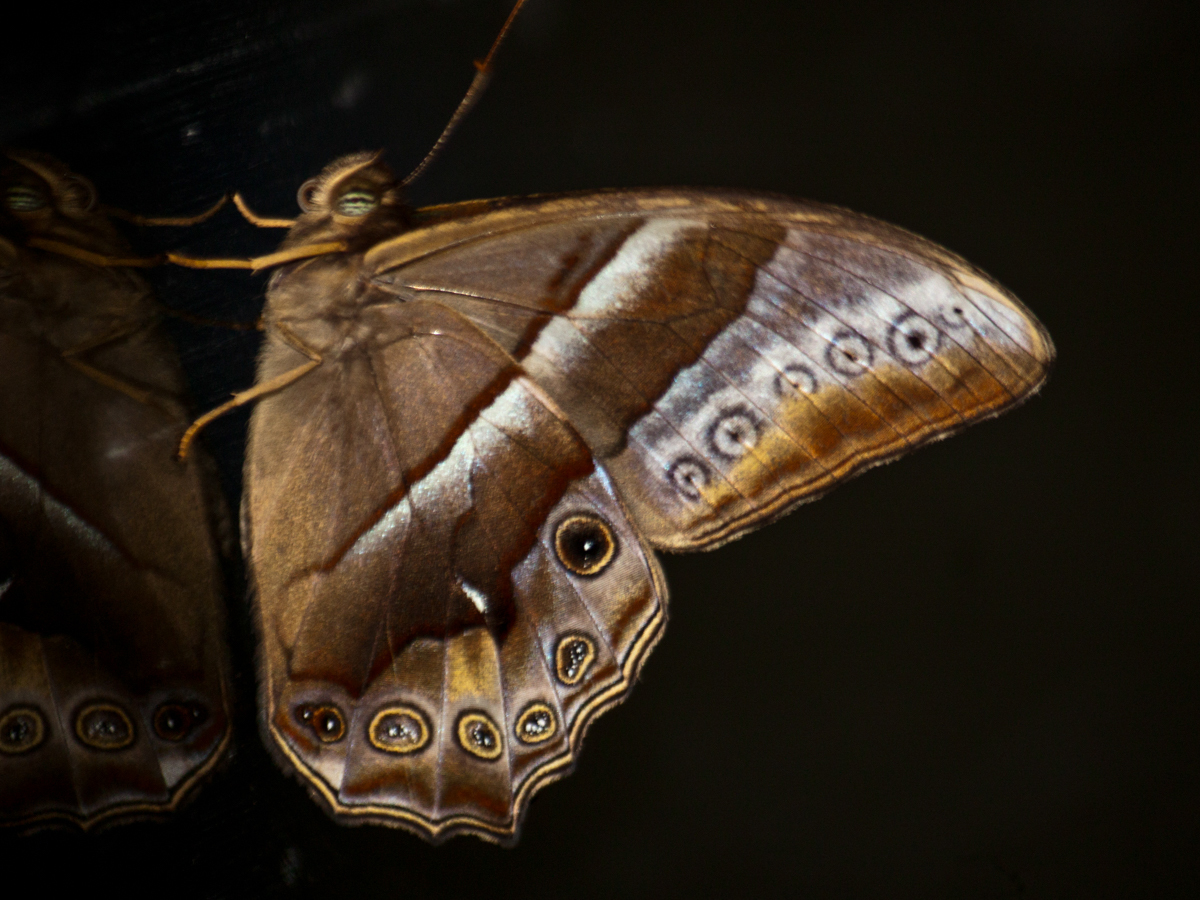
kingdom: Animalia
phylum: Arthropoda
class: Insecta
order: Lepidoptera
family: Nymphalidae
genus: Lethe
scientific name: Lethe mekara
